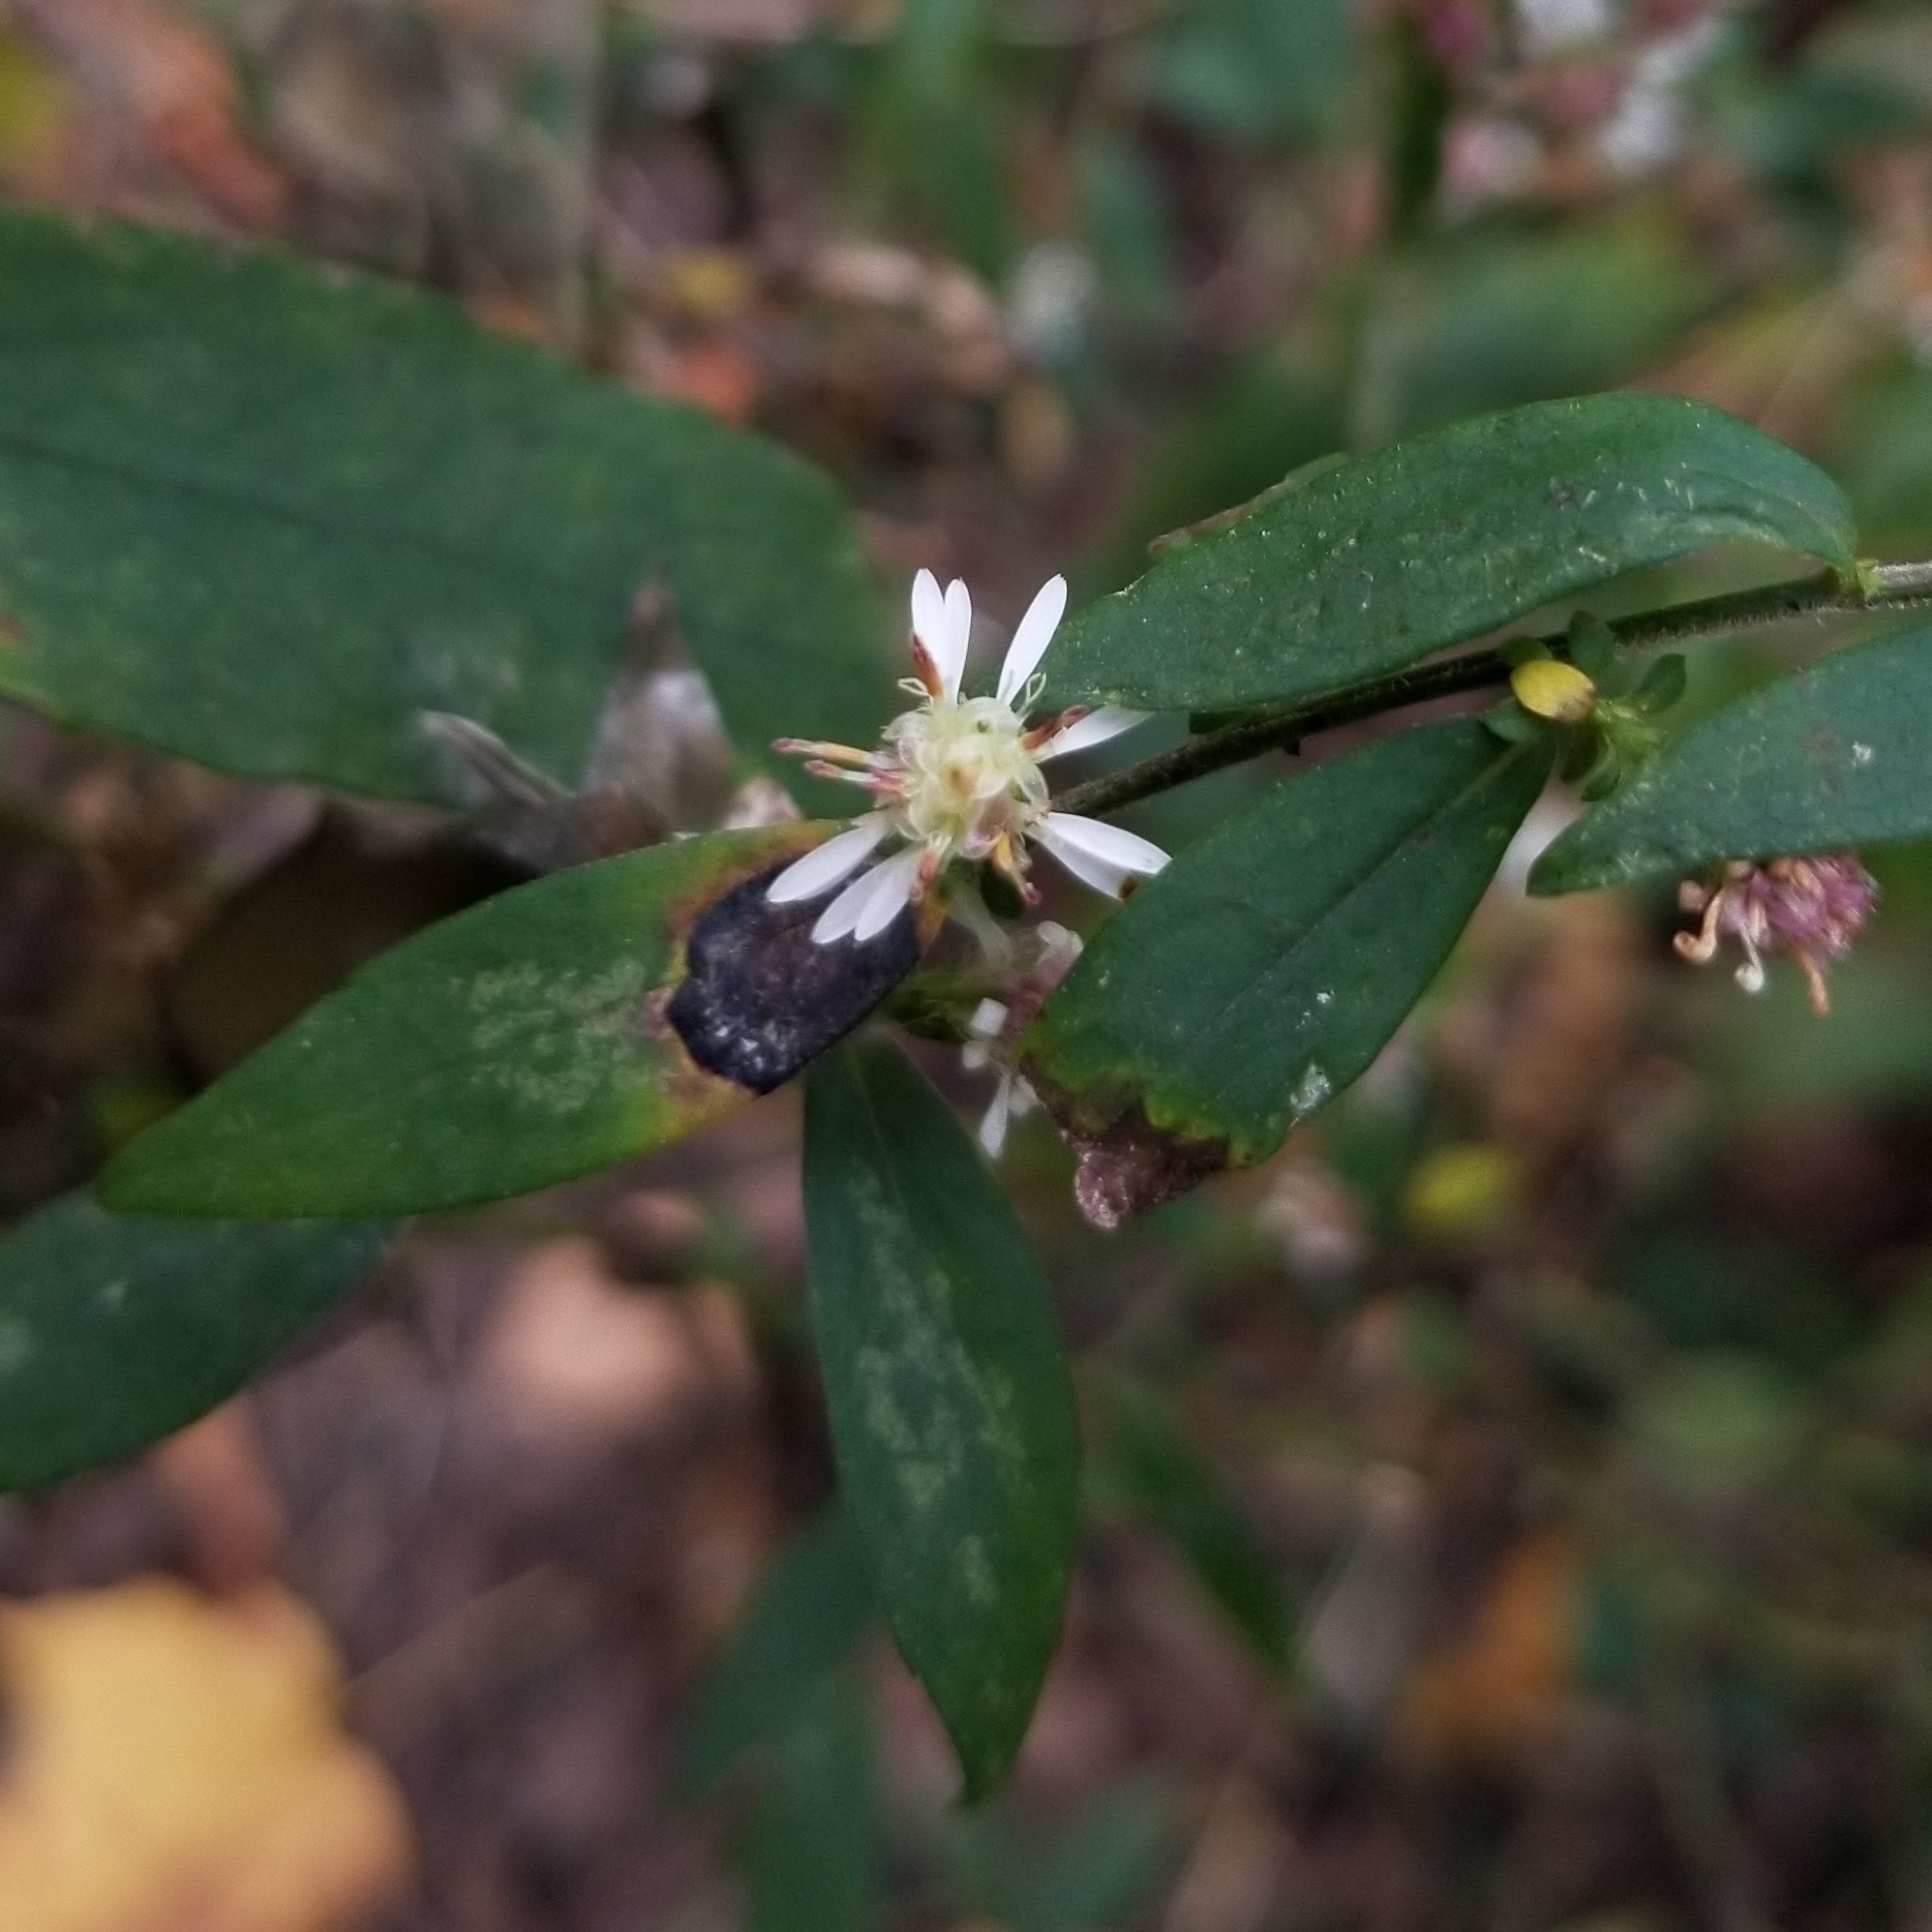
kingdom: Animalia
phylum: Arthropoda
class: Insecta
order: Diptera
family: Cecidomyiidae
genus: Asteromyia
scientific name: Asteromyia laeviana
